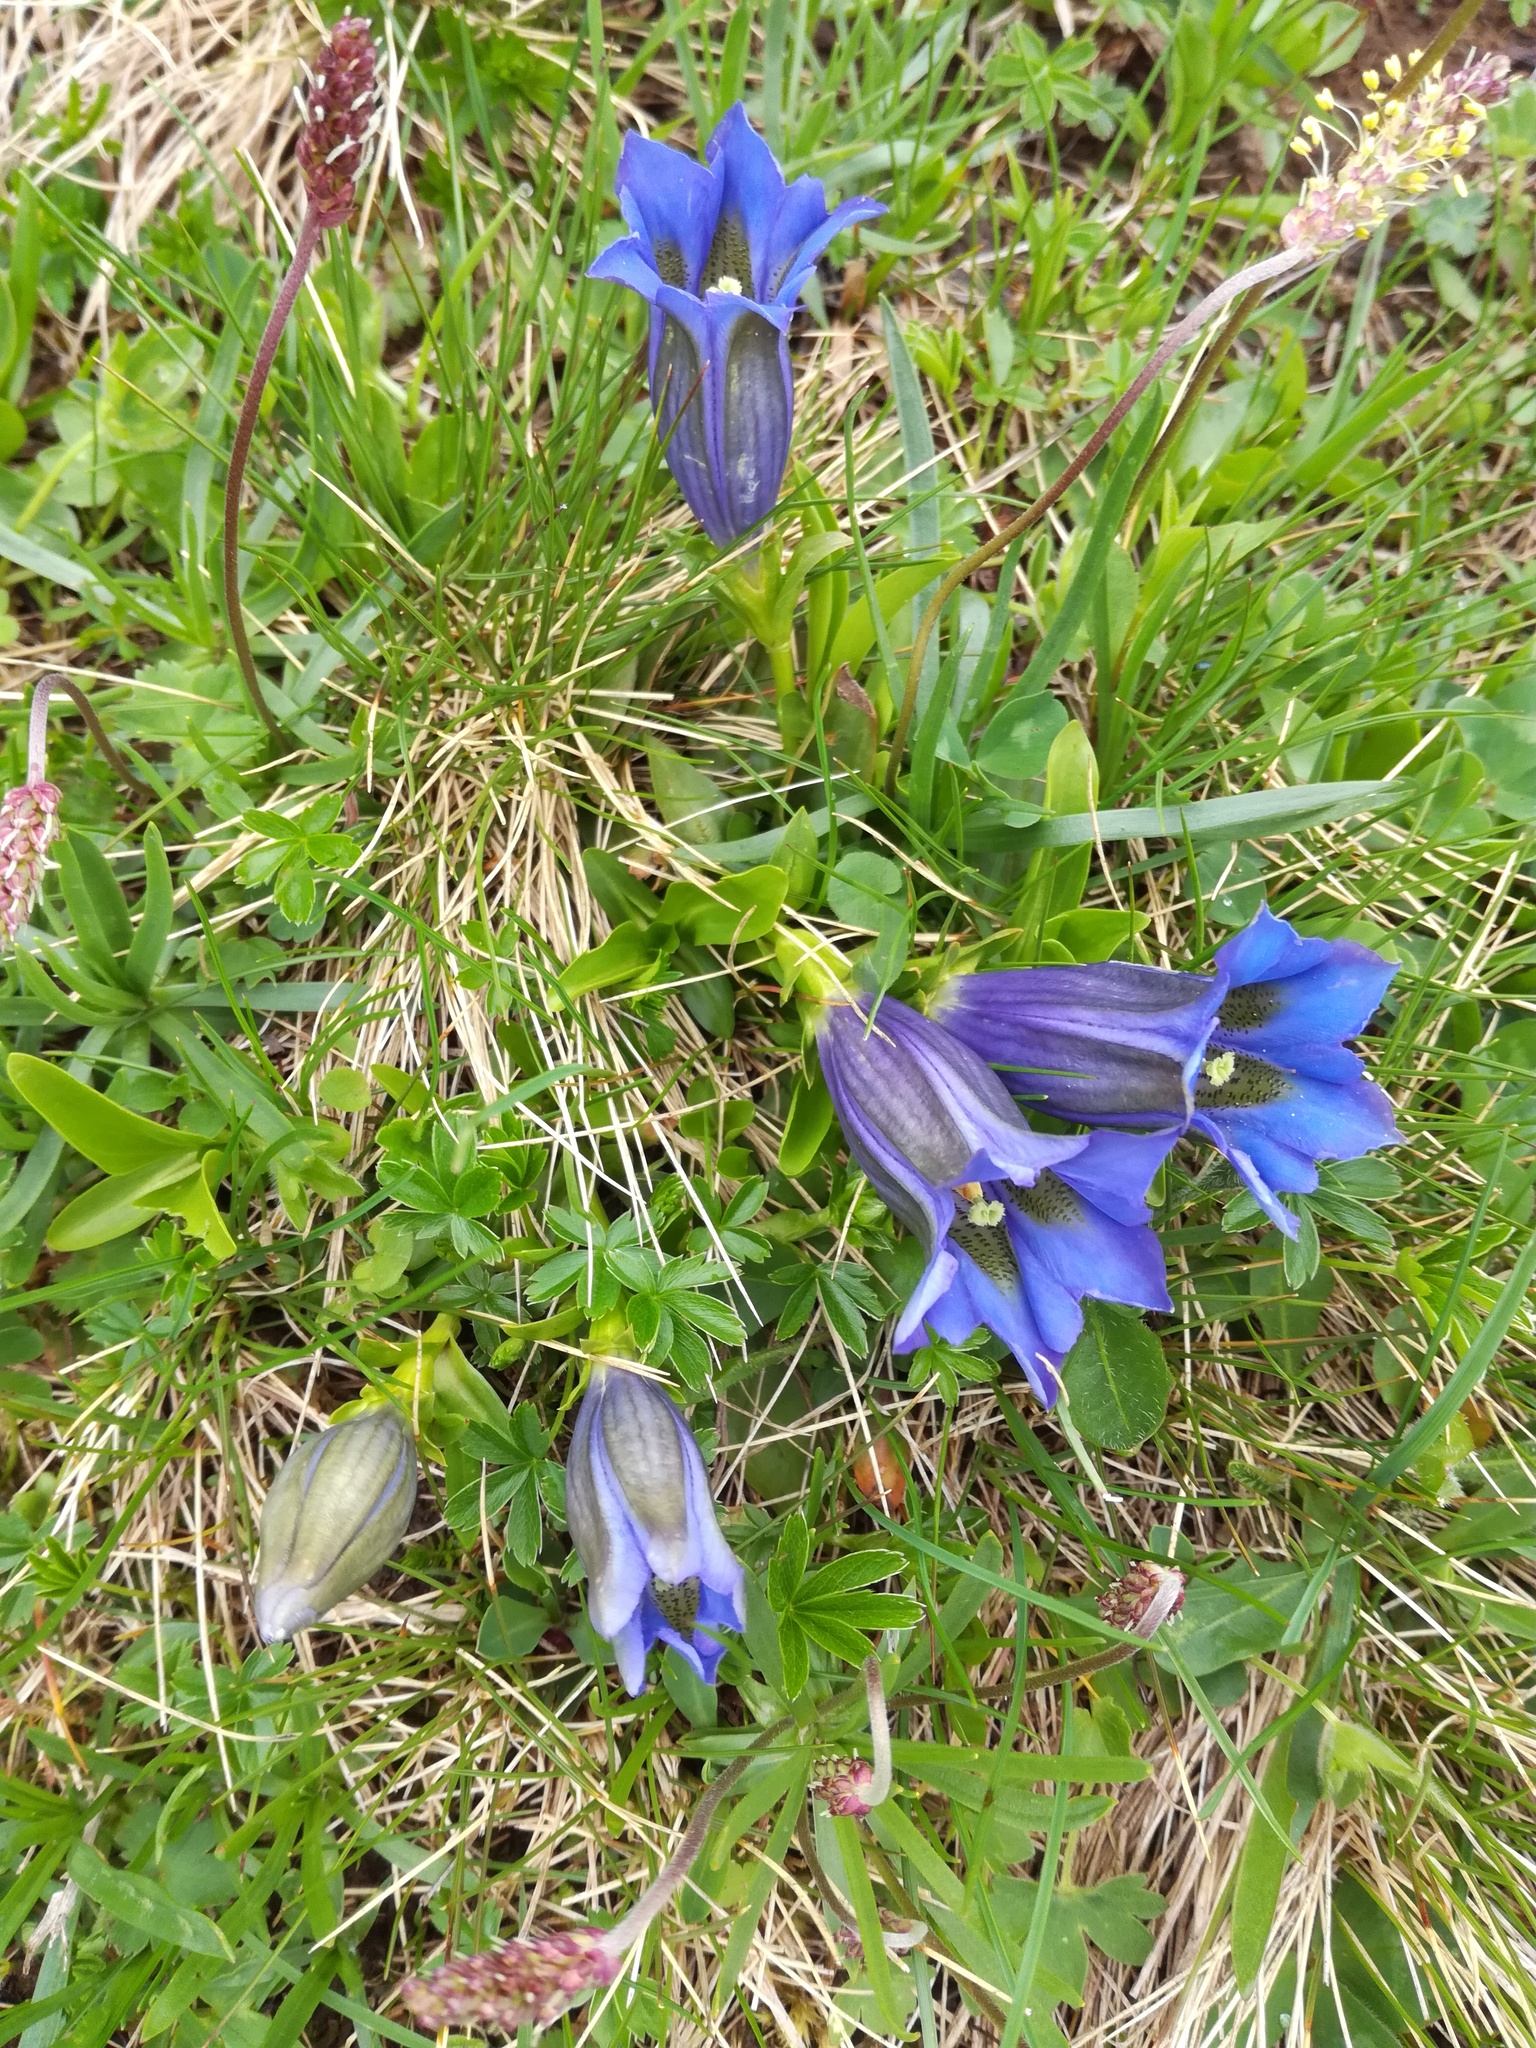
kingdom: Plantae
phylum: Tracheophyta
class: Magnoliopsida
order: Gentianales
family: Gentianaceae
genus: Gentiana
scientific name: Gentiana acaulis
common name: Trumpet gentian
